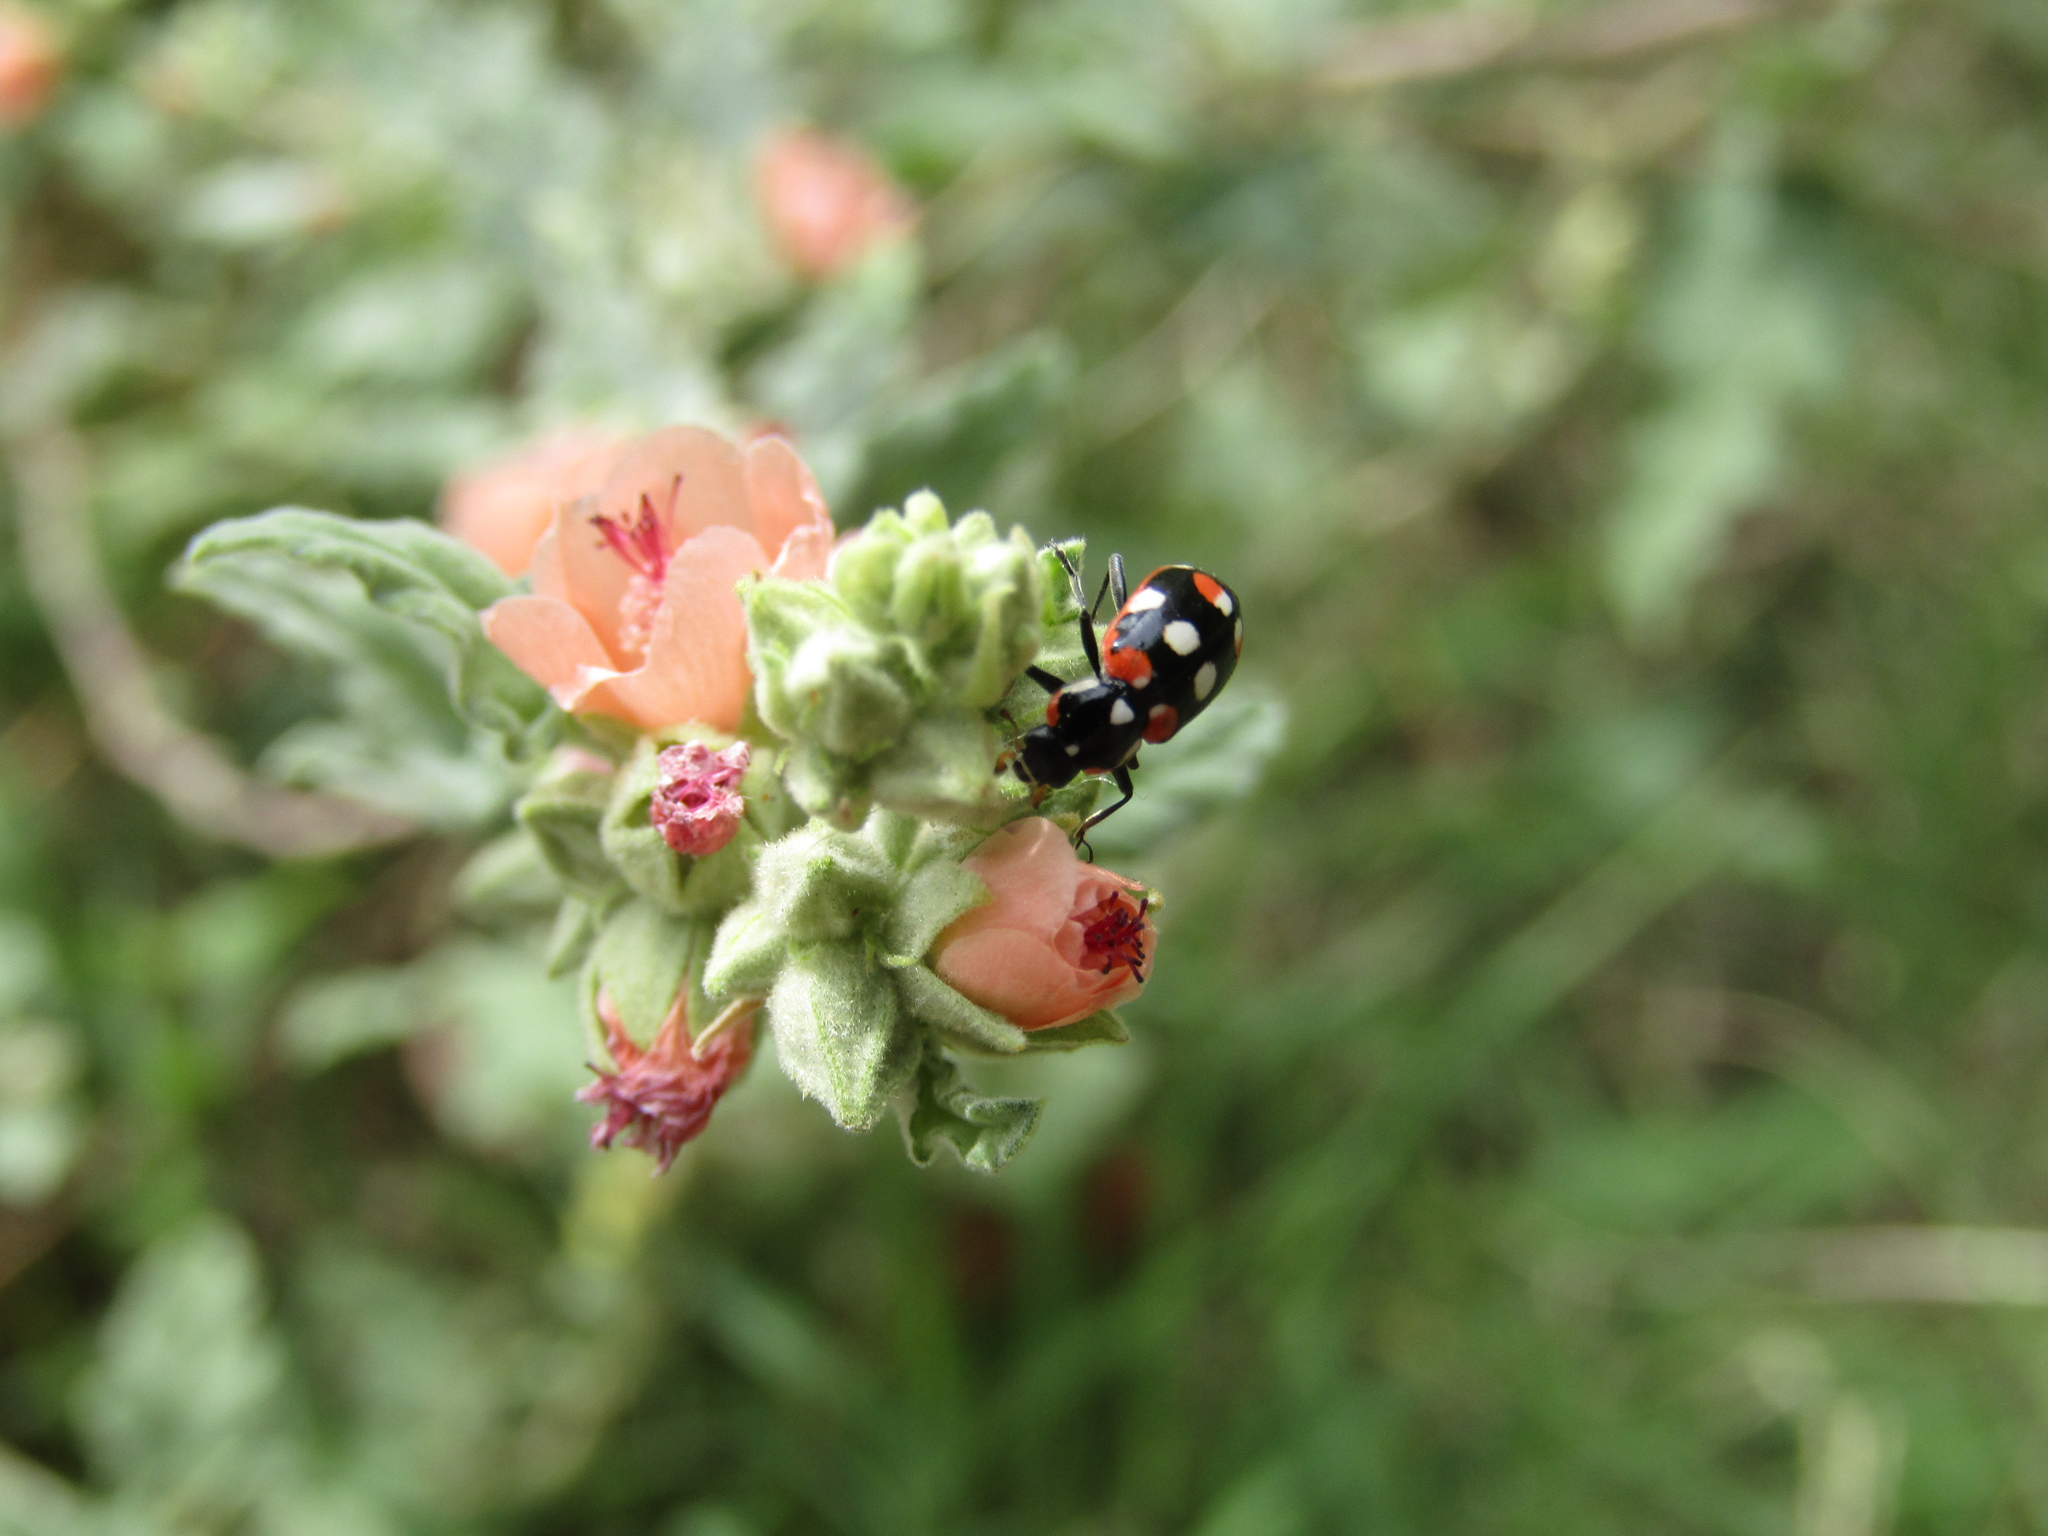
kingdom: Animalia
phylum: Arthropoda
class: Insecta
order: Coleoptera
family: Coccinellidae
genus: Eriopis
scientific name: Eriopis connexa
